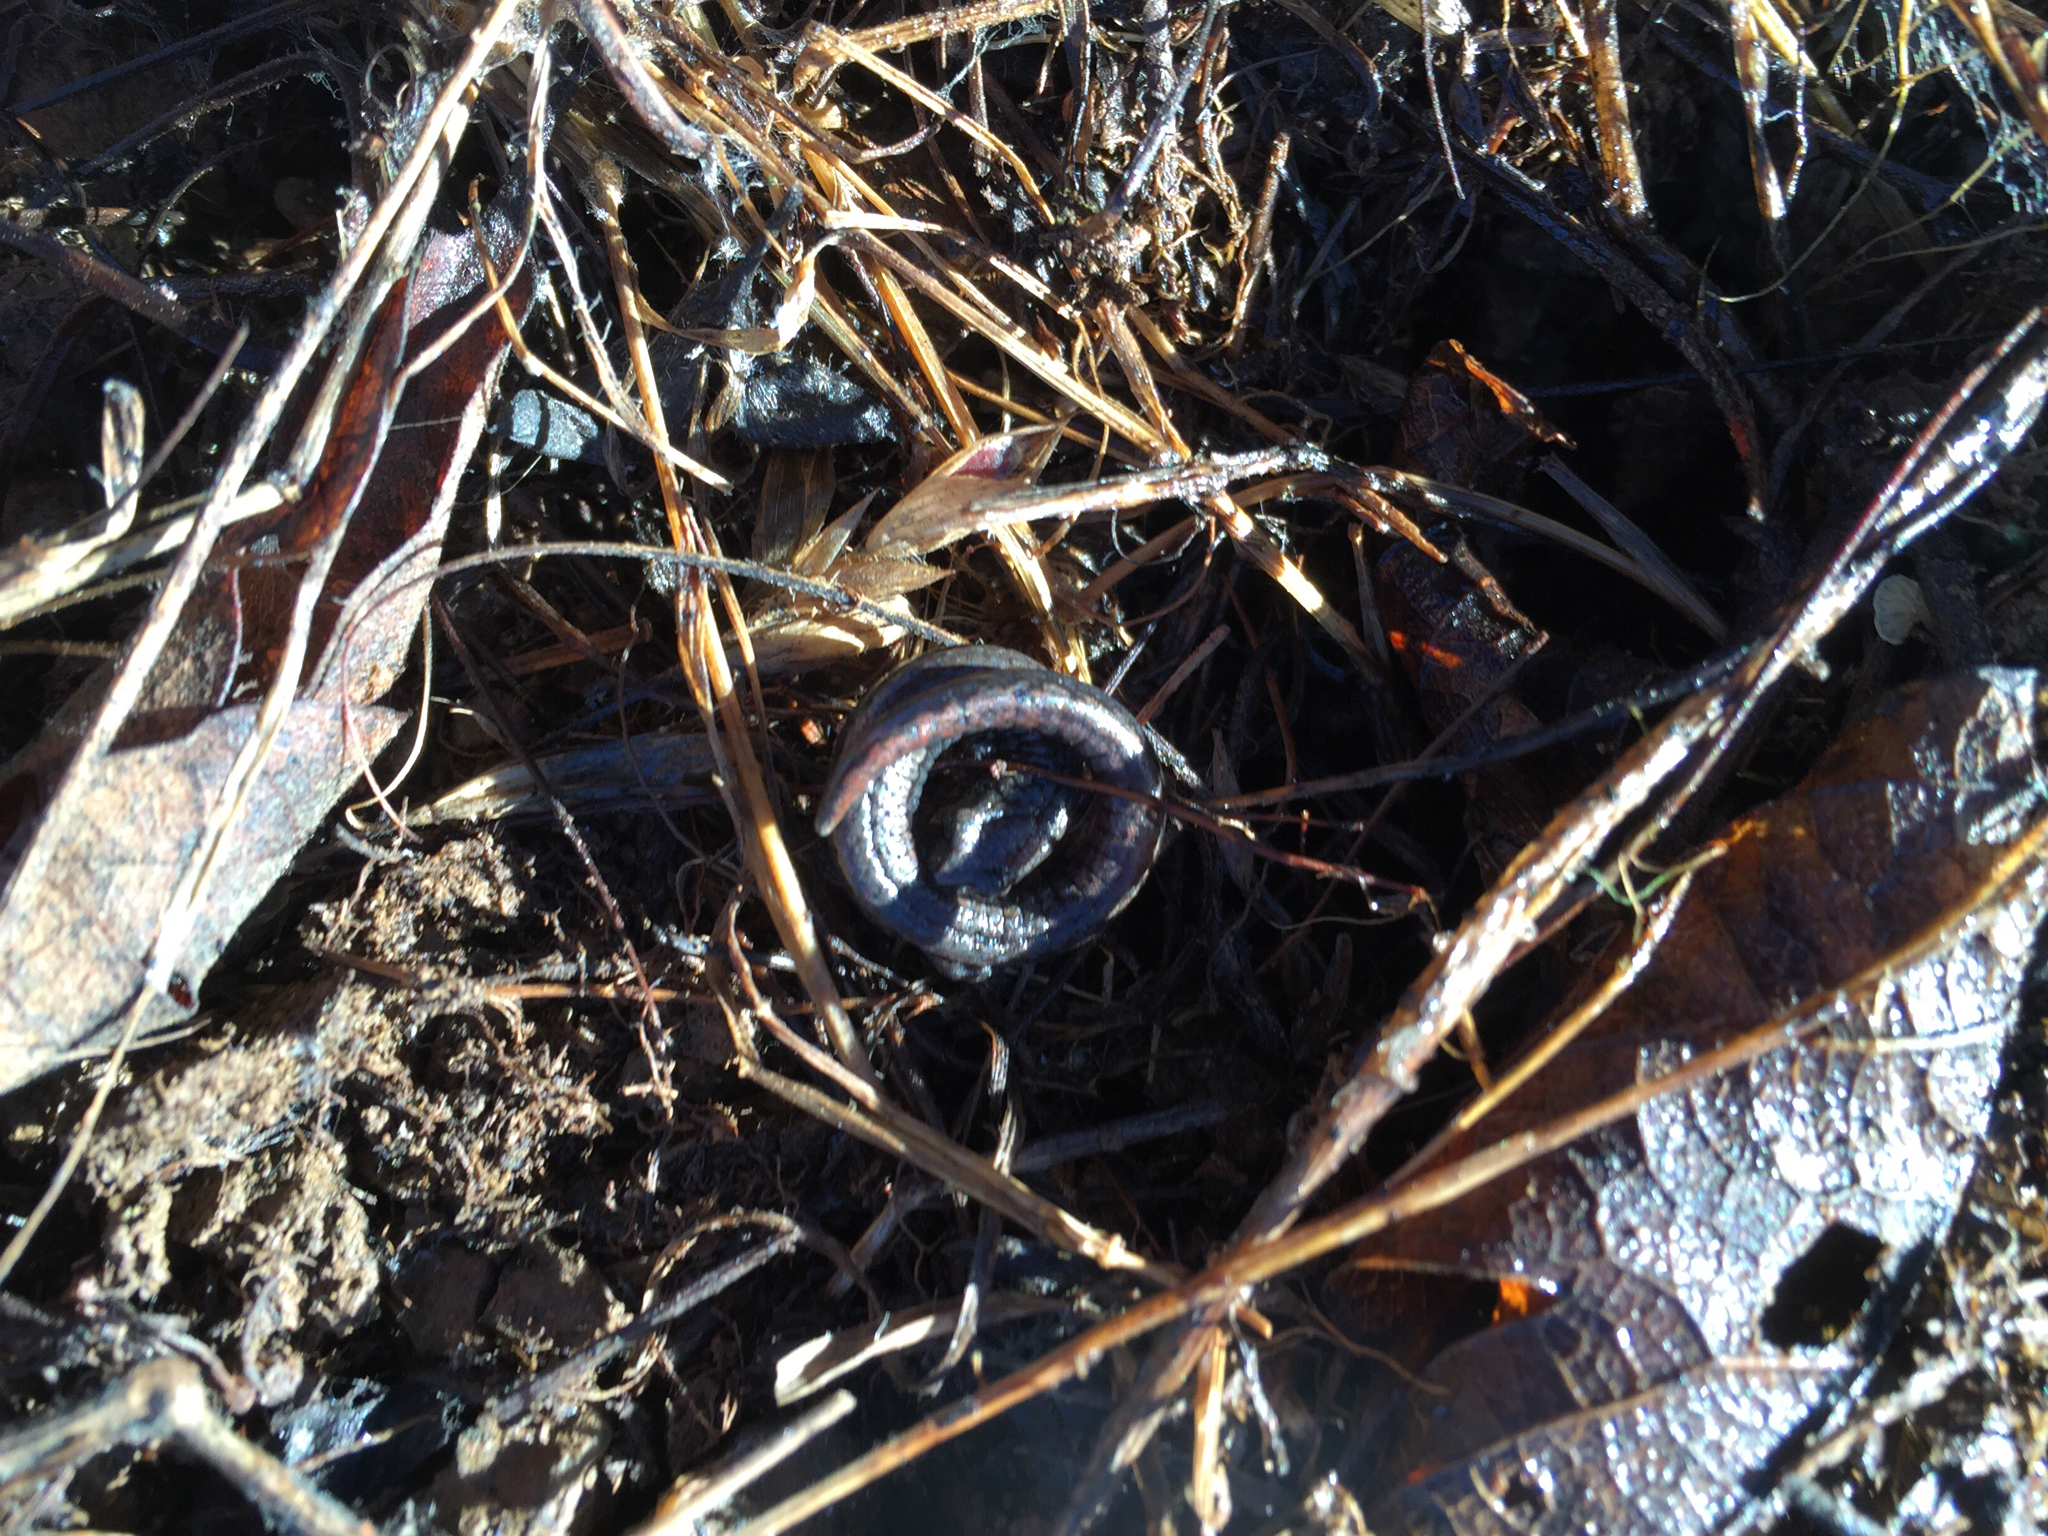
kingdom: Animalia
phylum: Chordata
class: Amphibia
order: Caudata
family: Plethodontidae
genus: Batrachoseps
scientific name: Batrachoseps attenuatus
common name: California slender salamander
